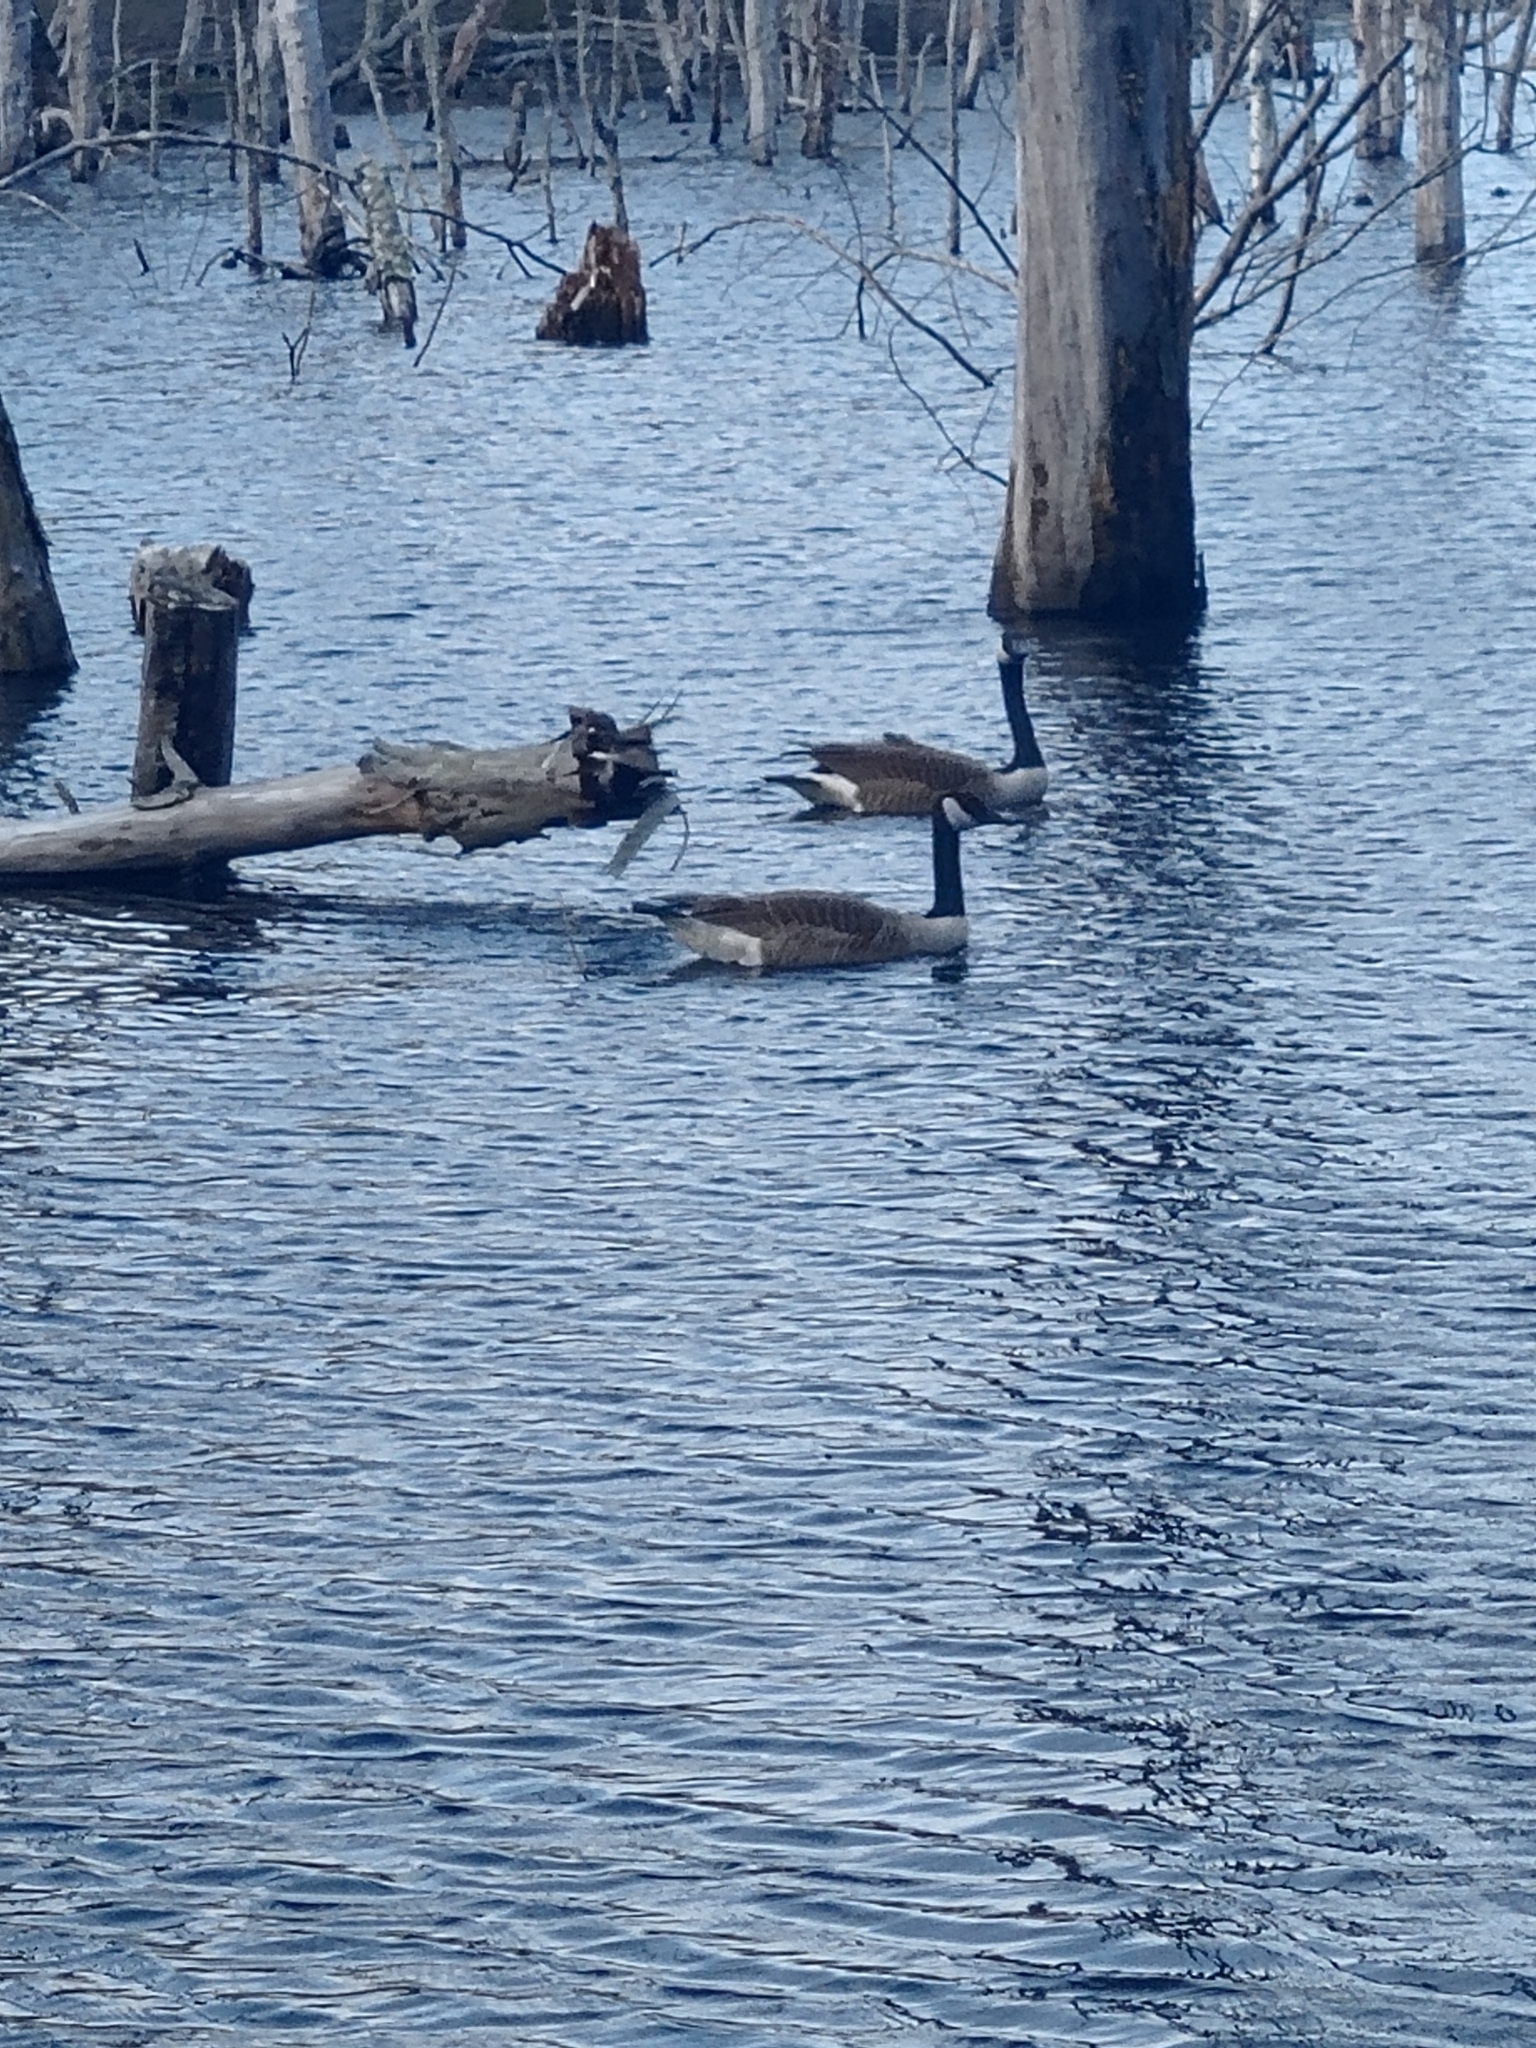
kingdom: Animalia
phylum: Chordata
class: Aves
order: Anseriformes
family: Anatidae
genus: Branta
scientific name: Branta canadensis
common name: Canada goose
